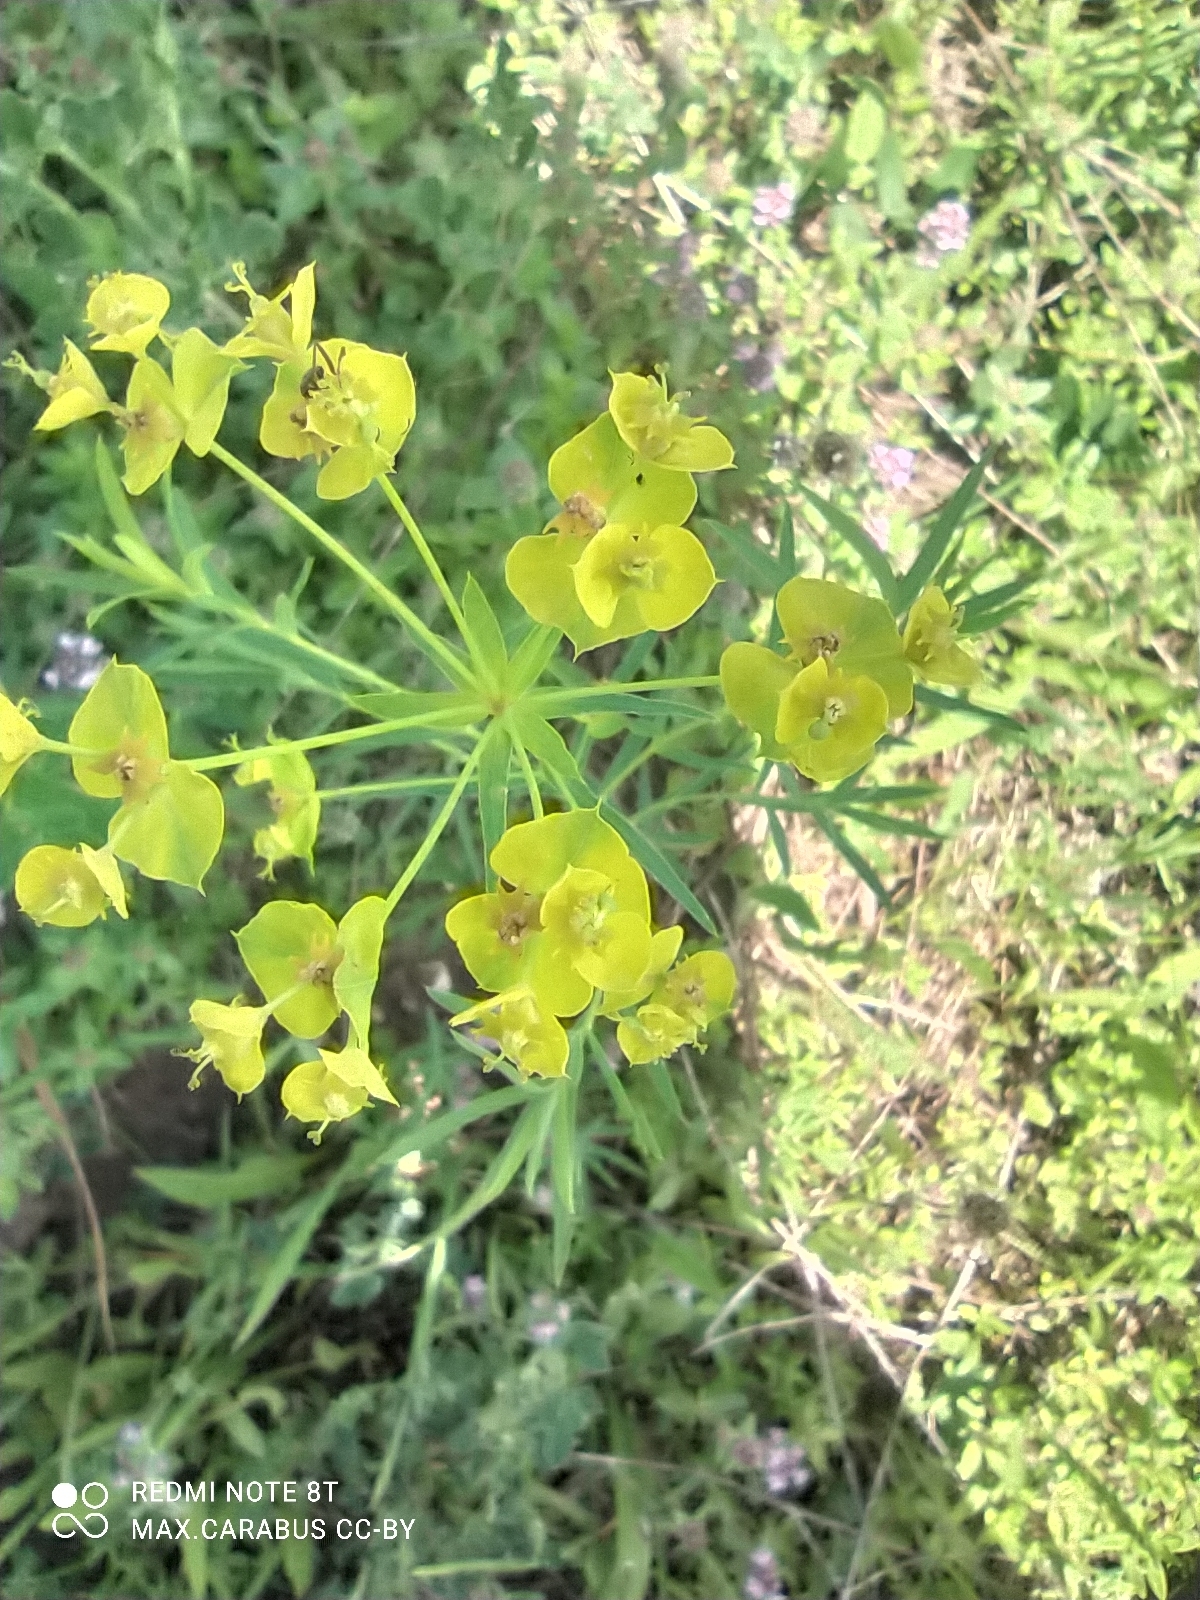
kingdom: Plantae
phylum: Tracheophyta
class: Magnoliopsida
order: Malpighiales
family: Euphorbiaceae
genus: Euphorbia
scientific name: Euphorbia virgata
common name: Leafy spurge
